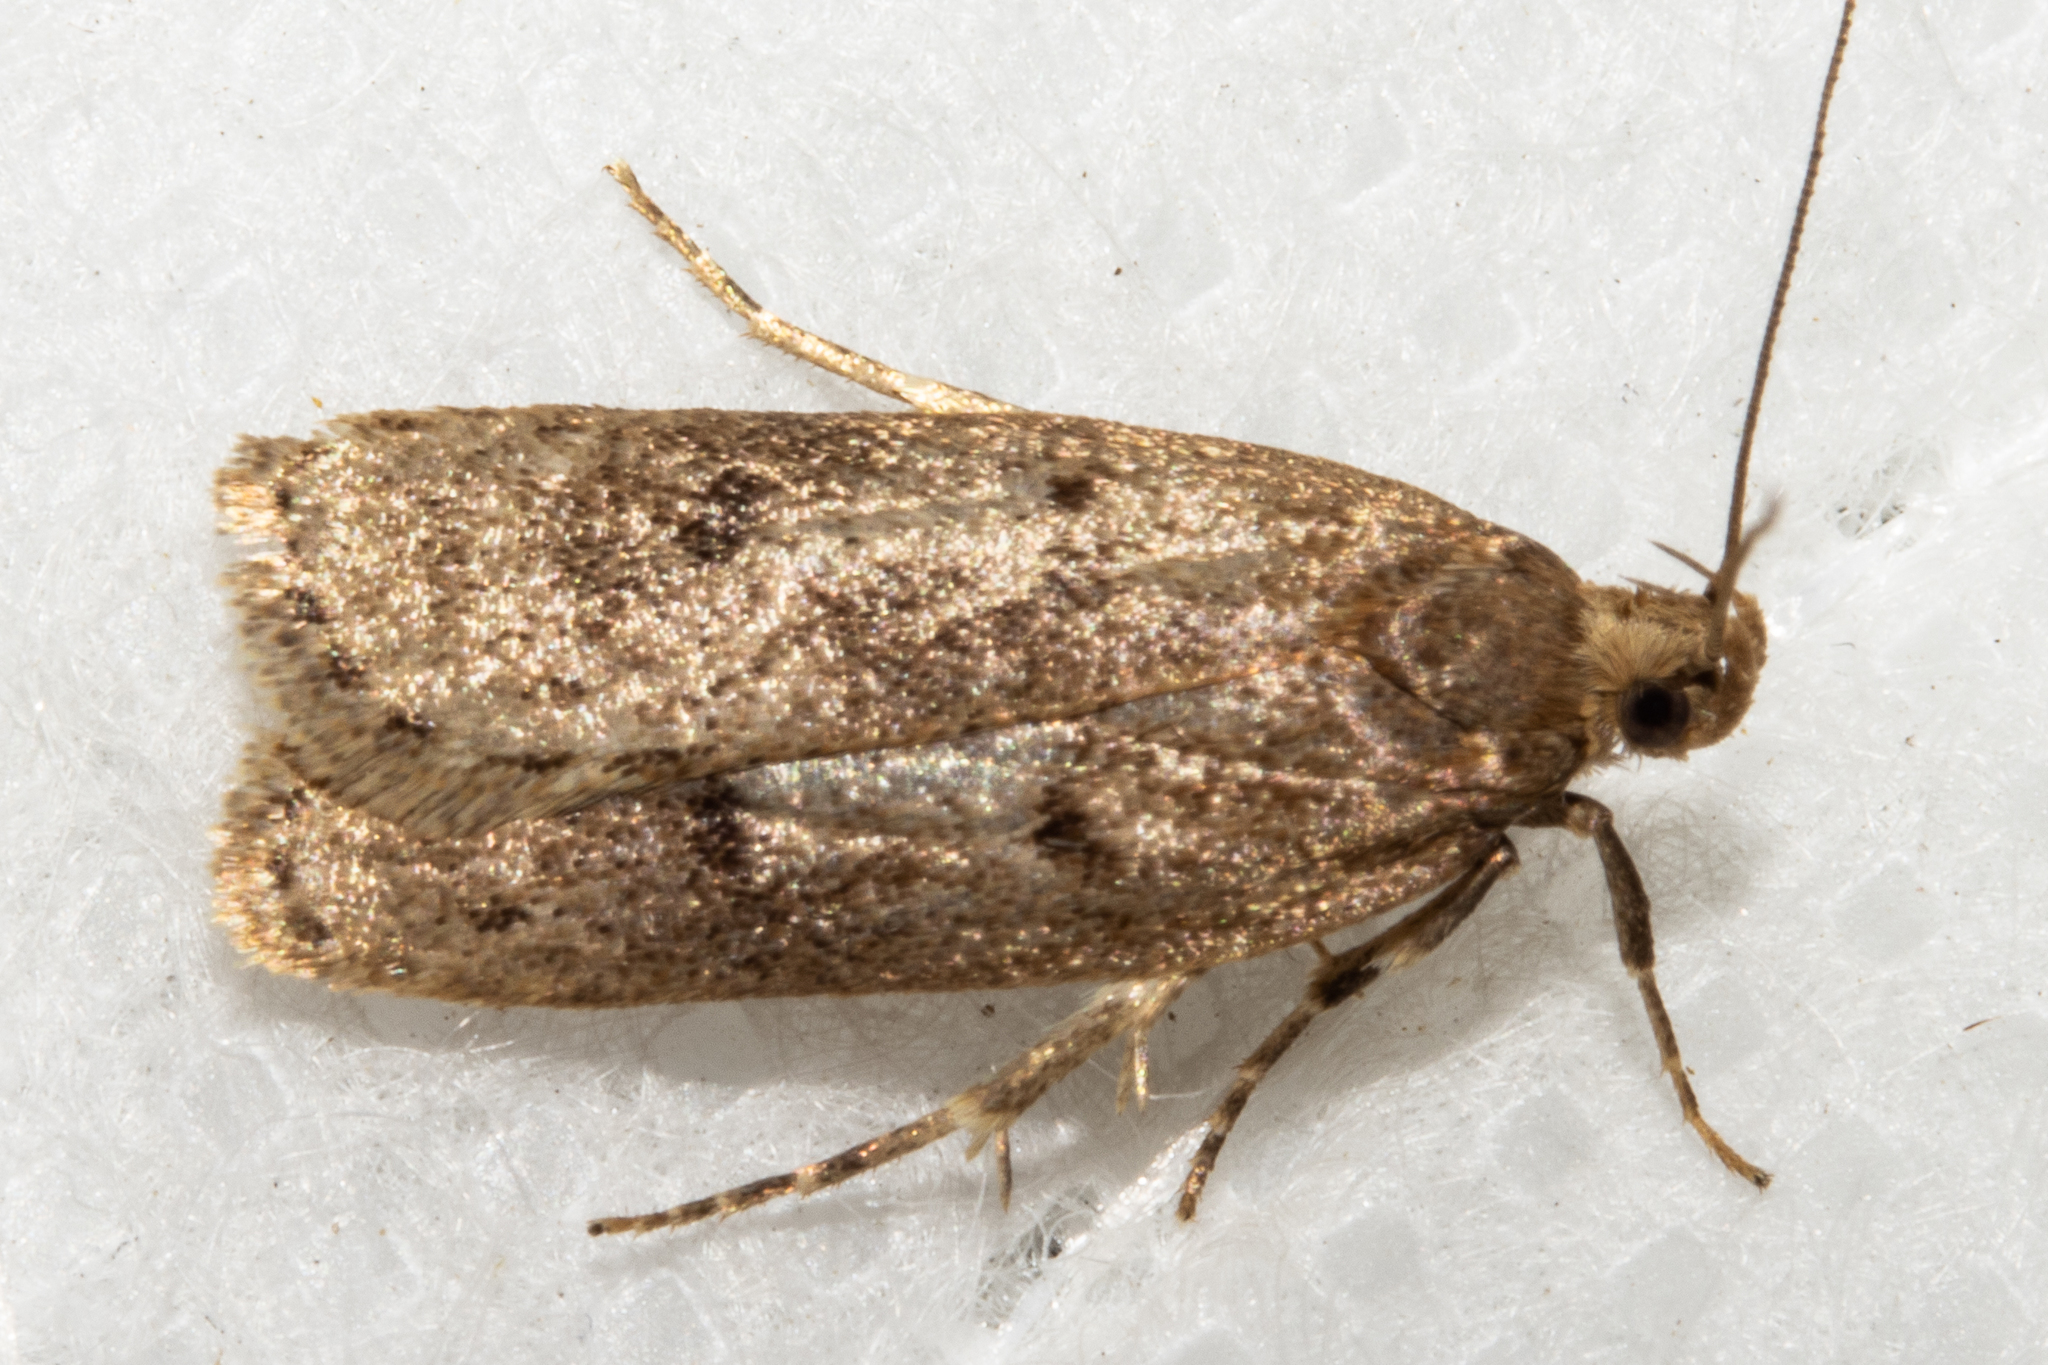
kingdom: Animalia
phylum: Arthropoda
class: Insecta
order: Lepidoptera
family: Depressariidae
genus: Phaeosaces
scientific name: Phaeosaces apocrypta
